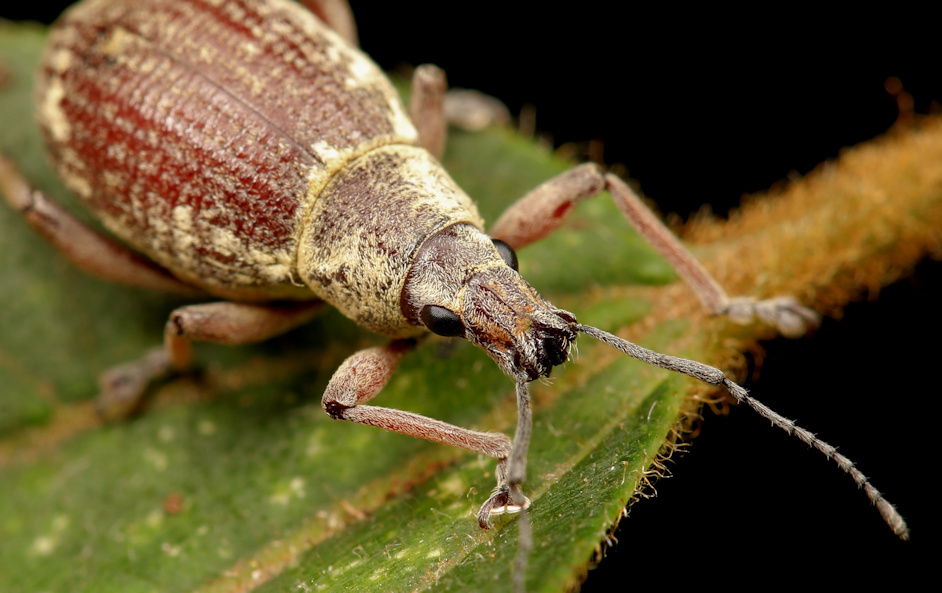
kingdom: Animalia
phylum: Arthropoda
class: Insecta
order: Coleoptera
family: Curculionidae
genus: Sciobius
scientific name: Sciobius angustus
